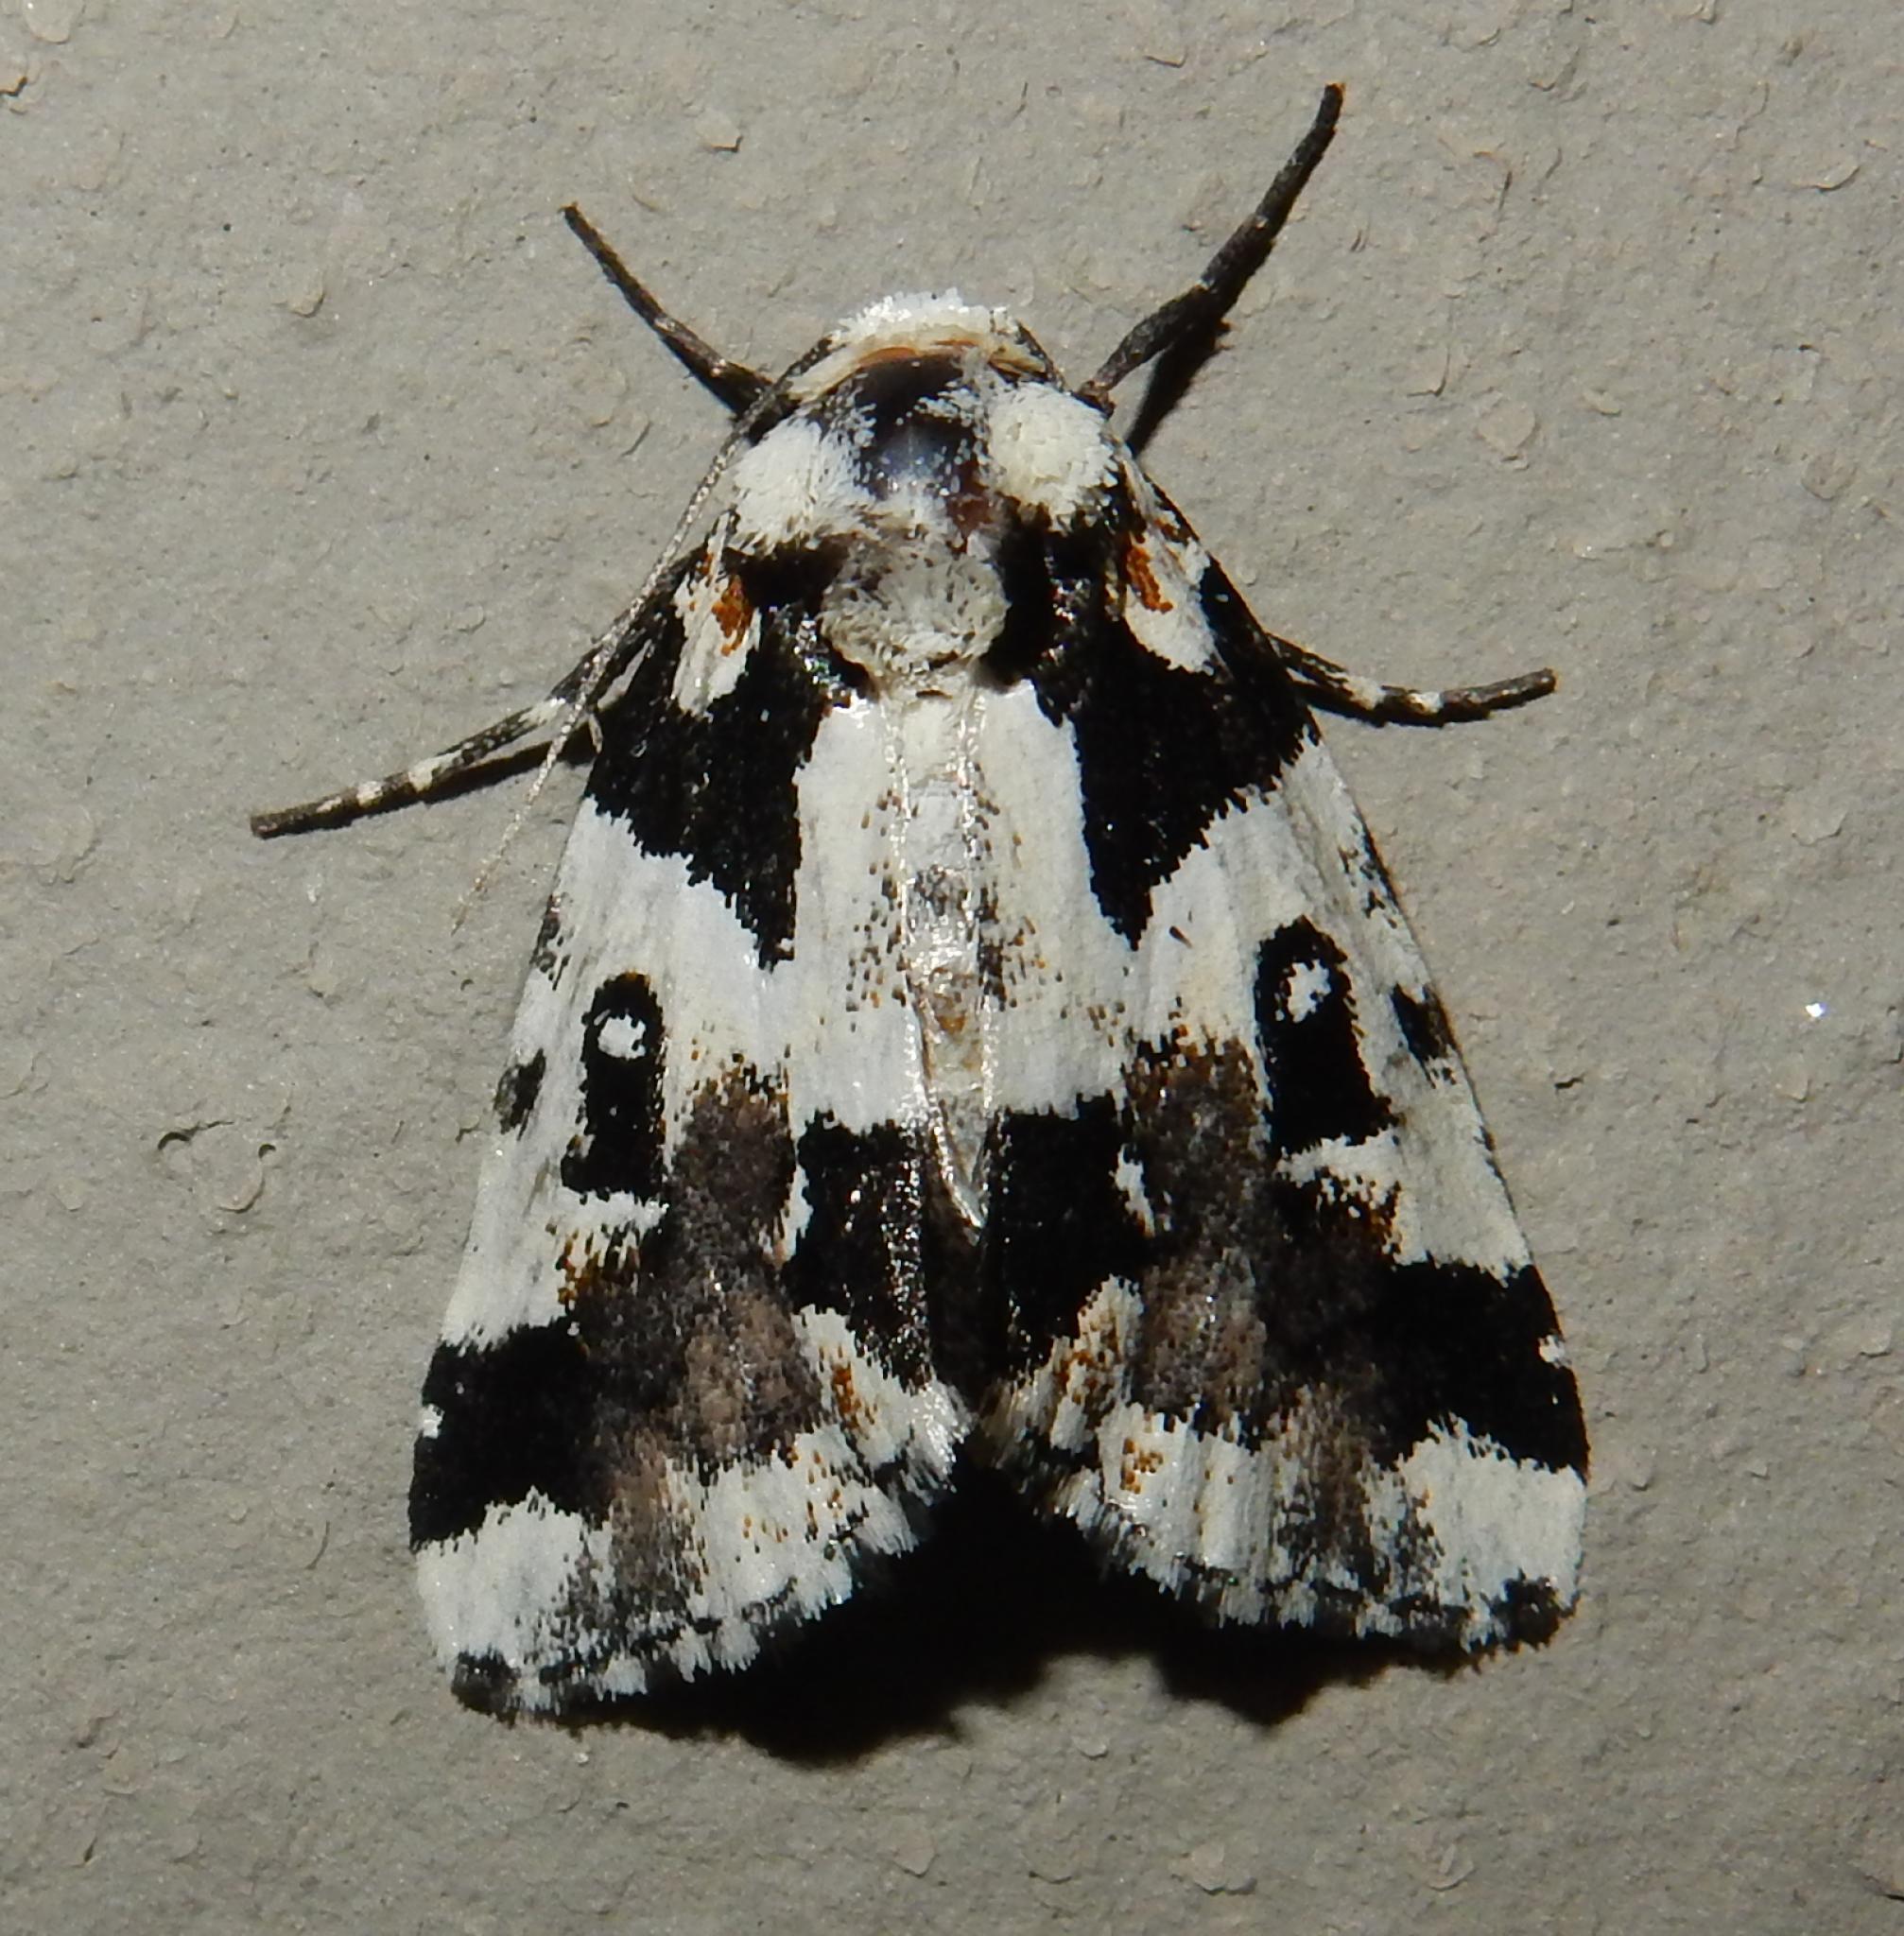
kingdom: Animalia
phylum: Arthropoda
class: Insecta
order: Lepidoptera
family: Noctuidae
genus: Leucotrachea
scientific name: Leucotrachea melanodonta
